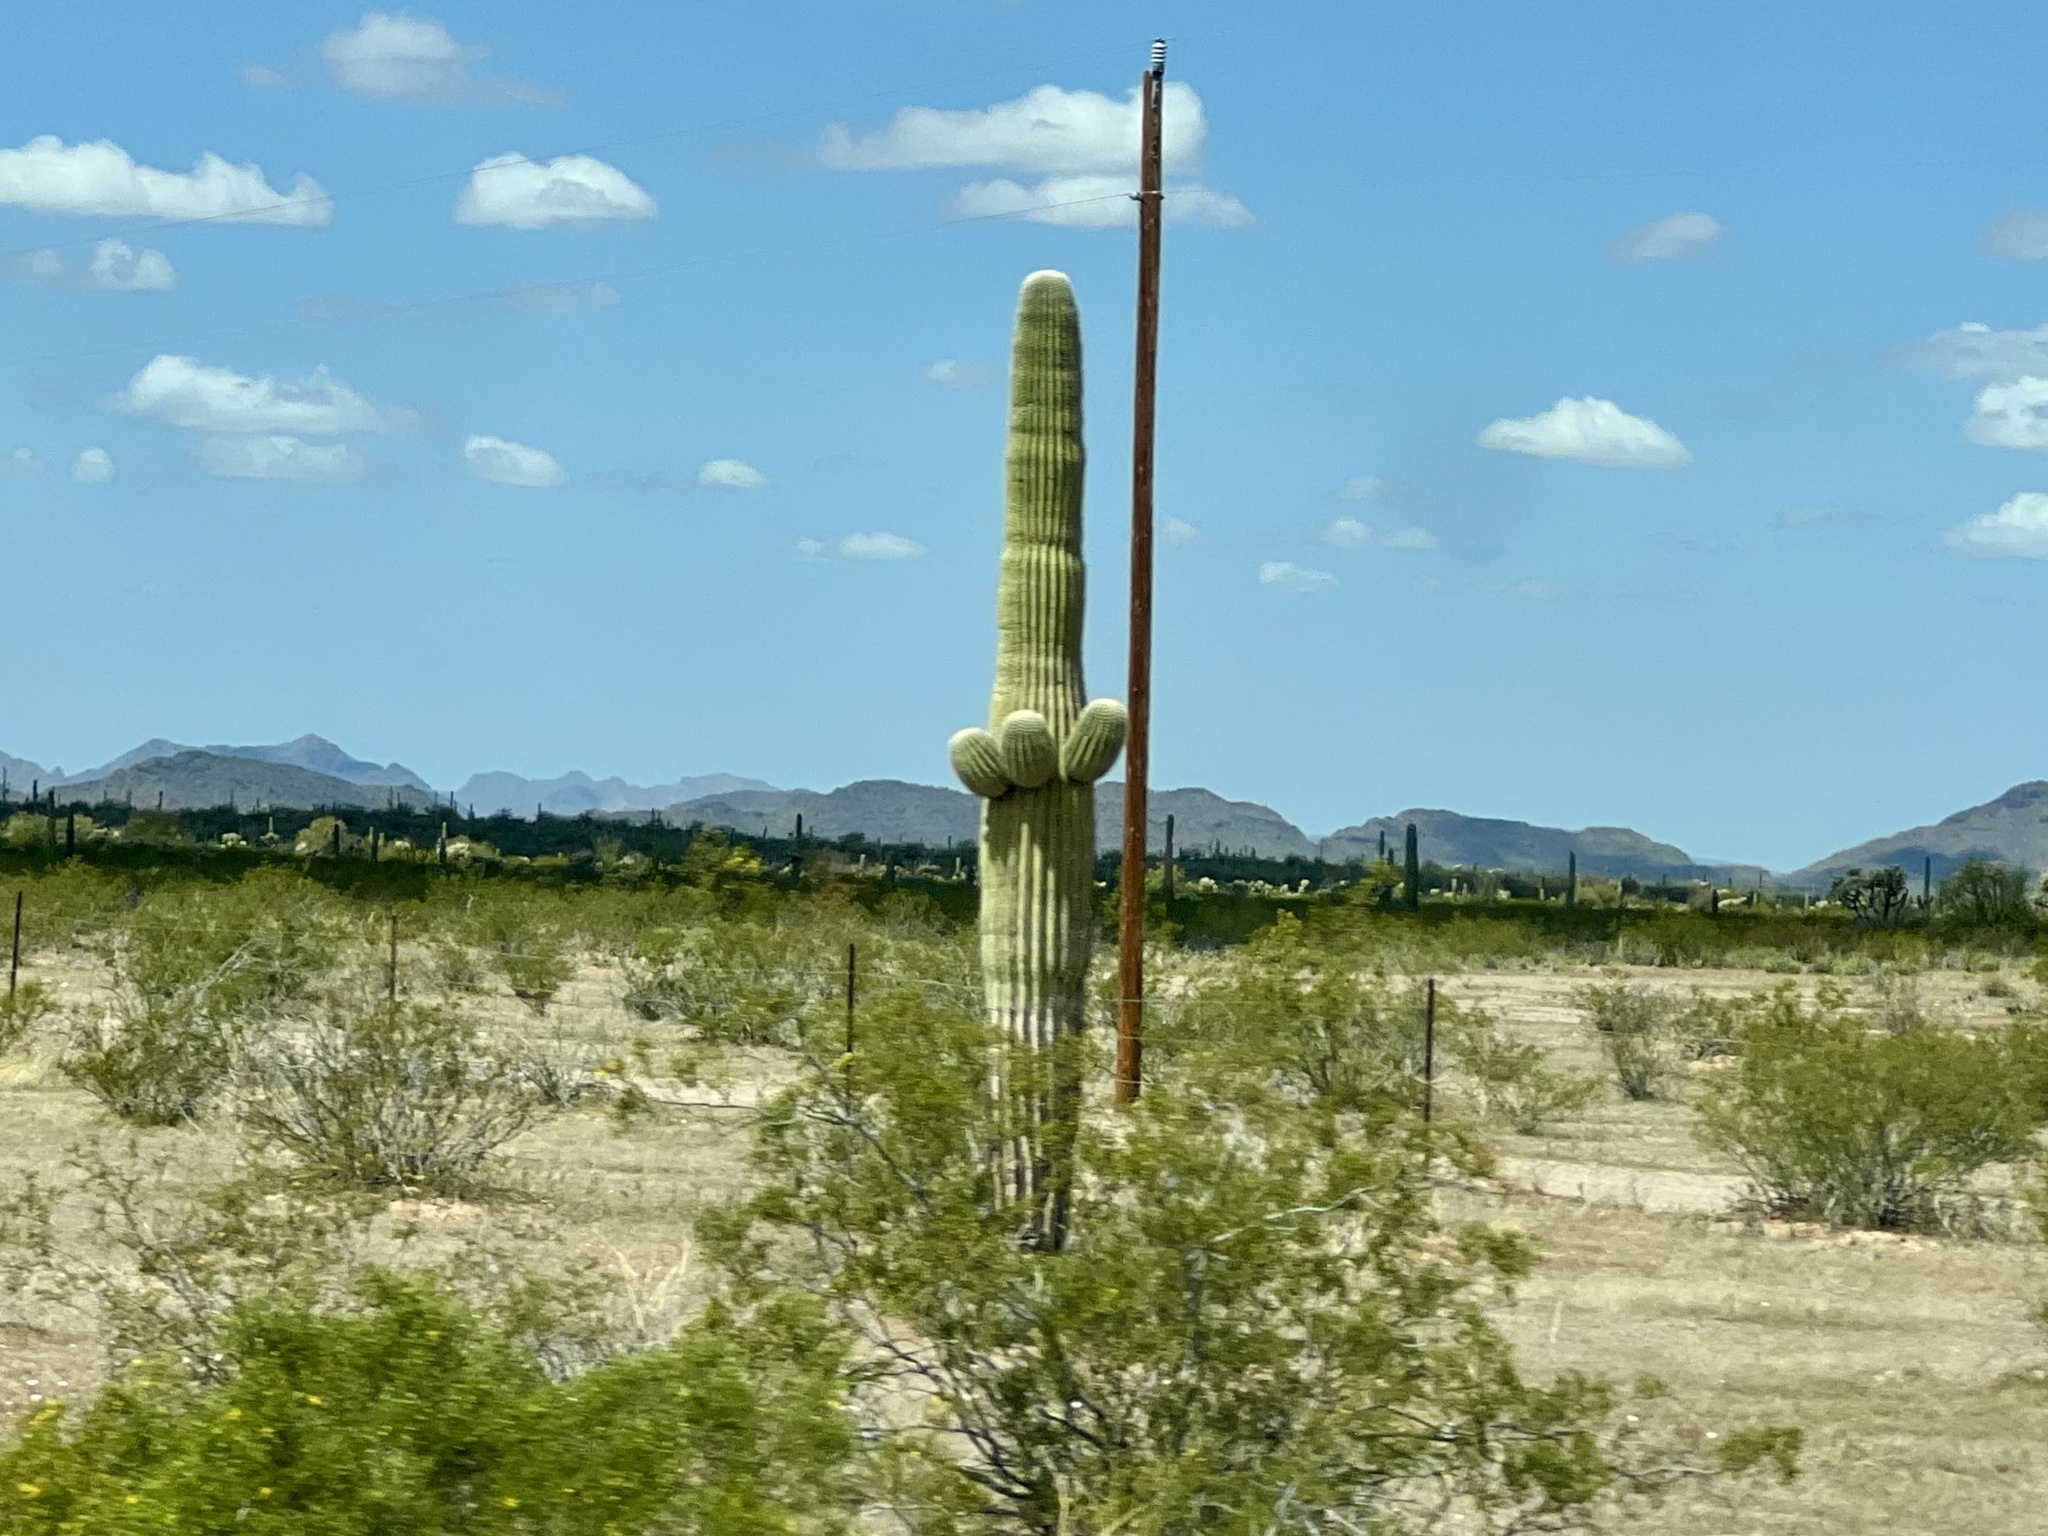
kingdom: Plantae
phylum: Tracheophyta
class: Magnoliopsida
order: Caryophyllales
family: Cactaceae
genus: Carnegiea
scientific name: Carnegiea gigantea
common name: Saguaro
